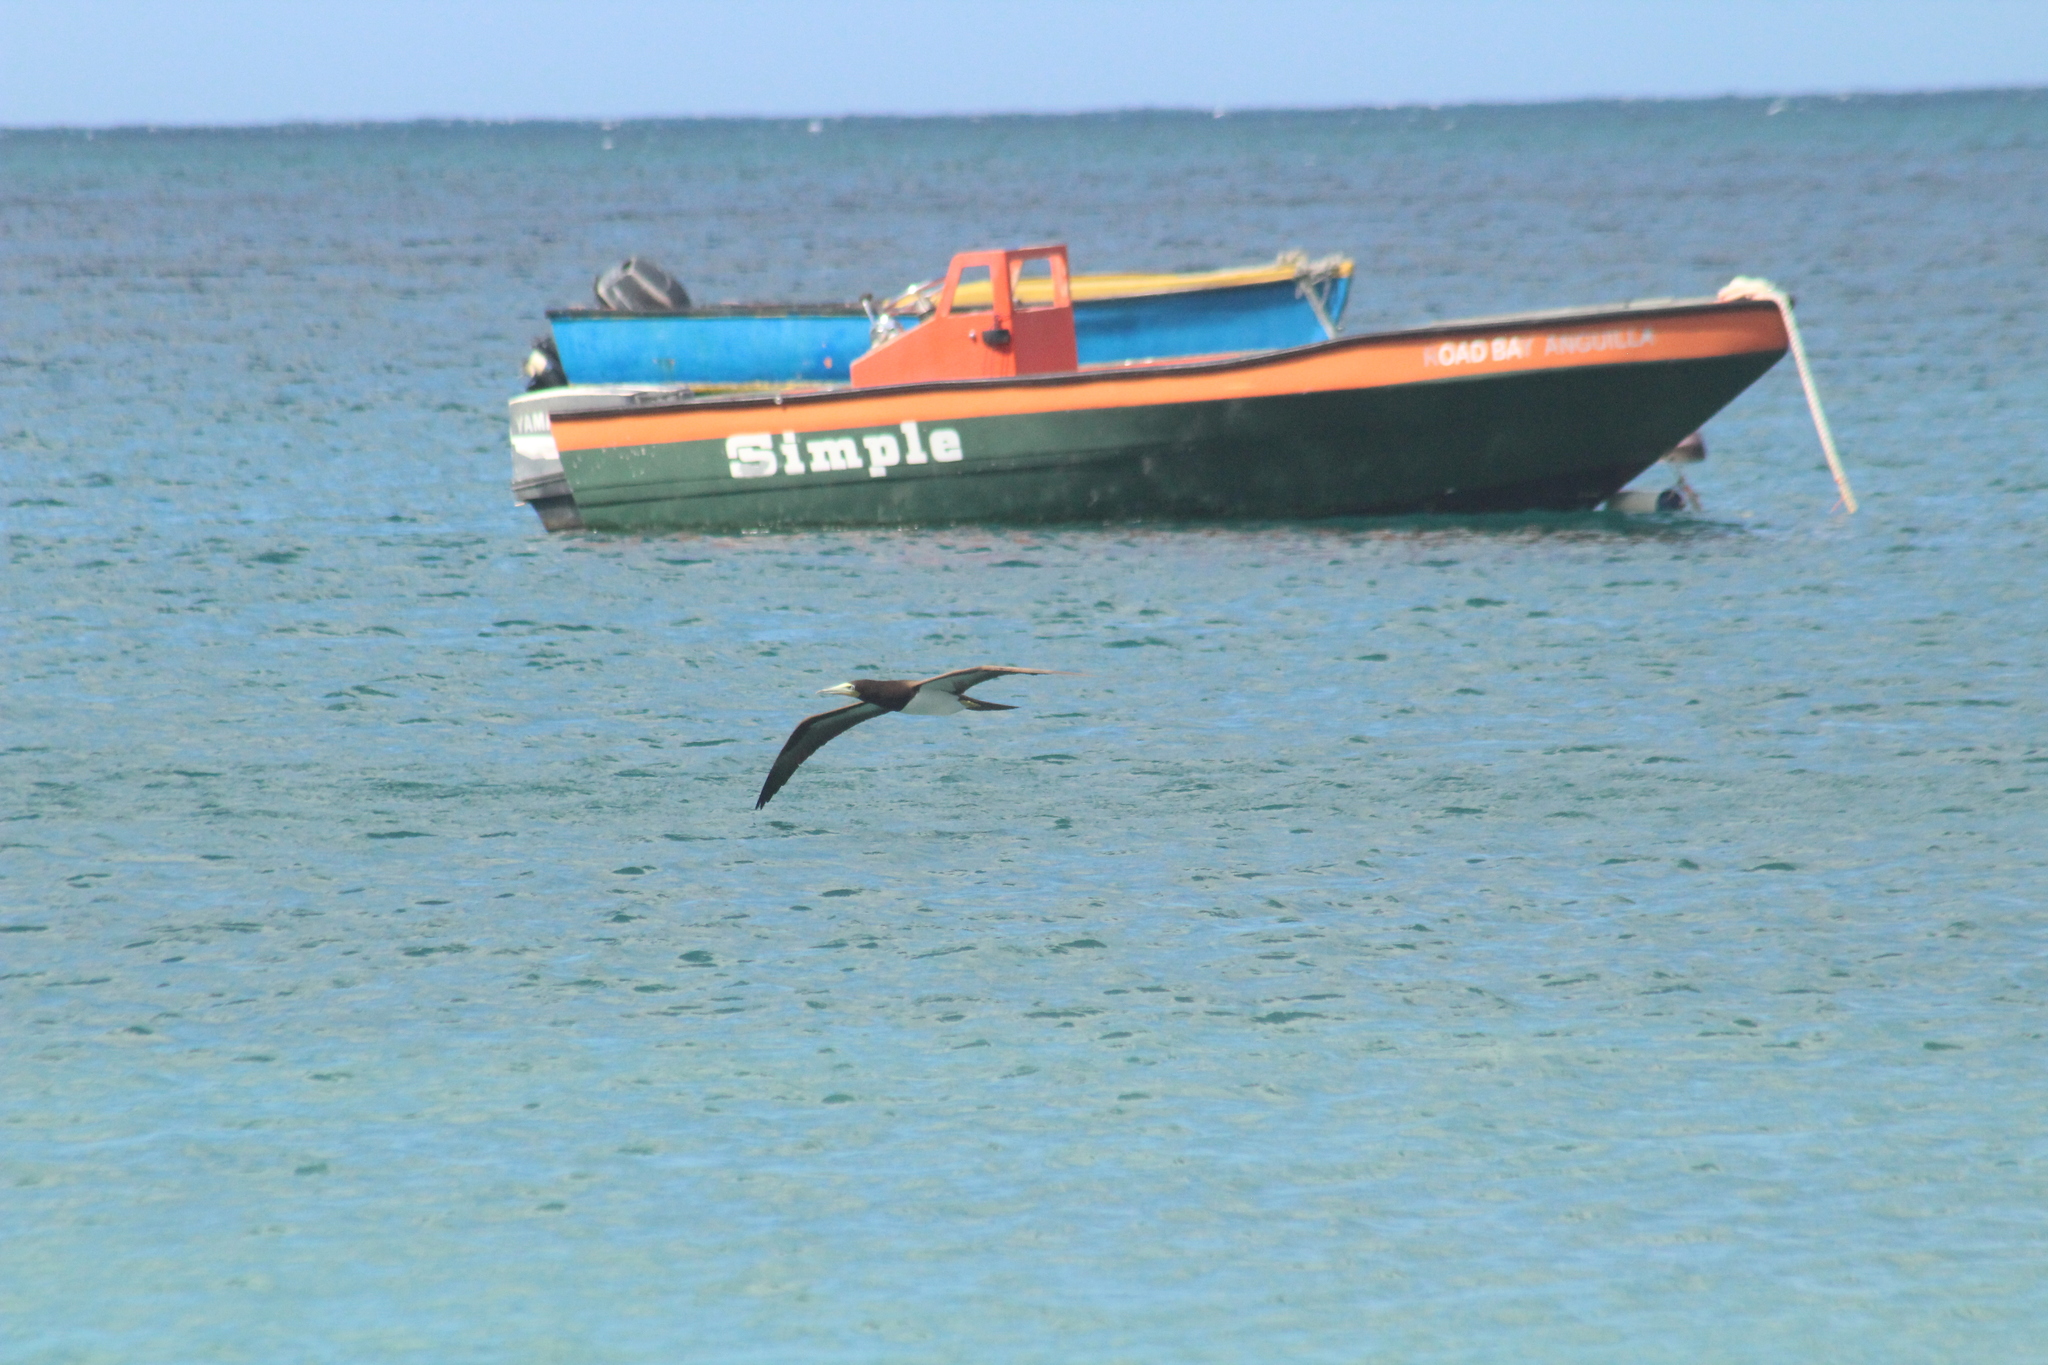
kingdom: Animalia
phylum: Chordata
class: Aves
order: Suliformes
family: Sulidae
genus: Sula
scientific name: Sula leucogaster
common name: Brown booby
